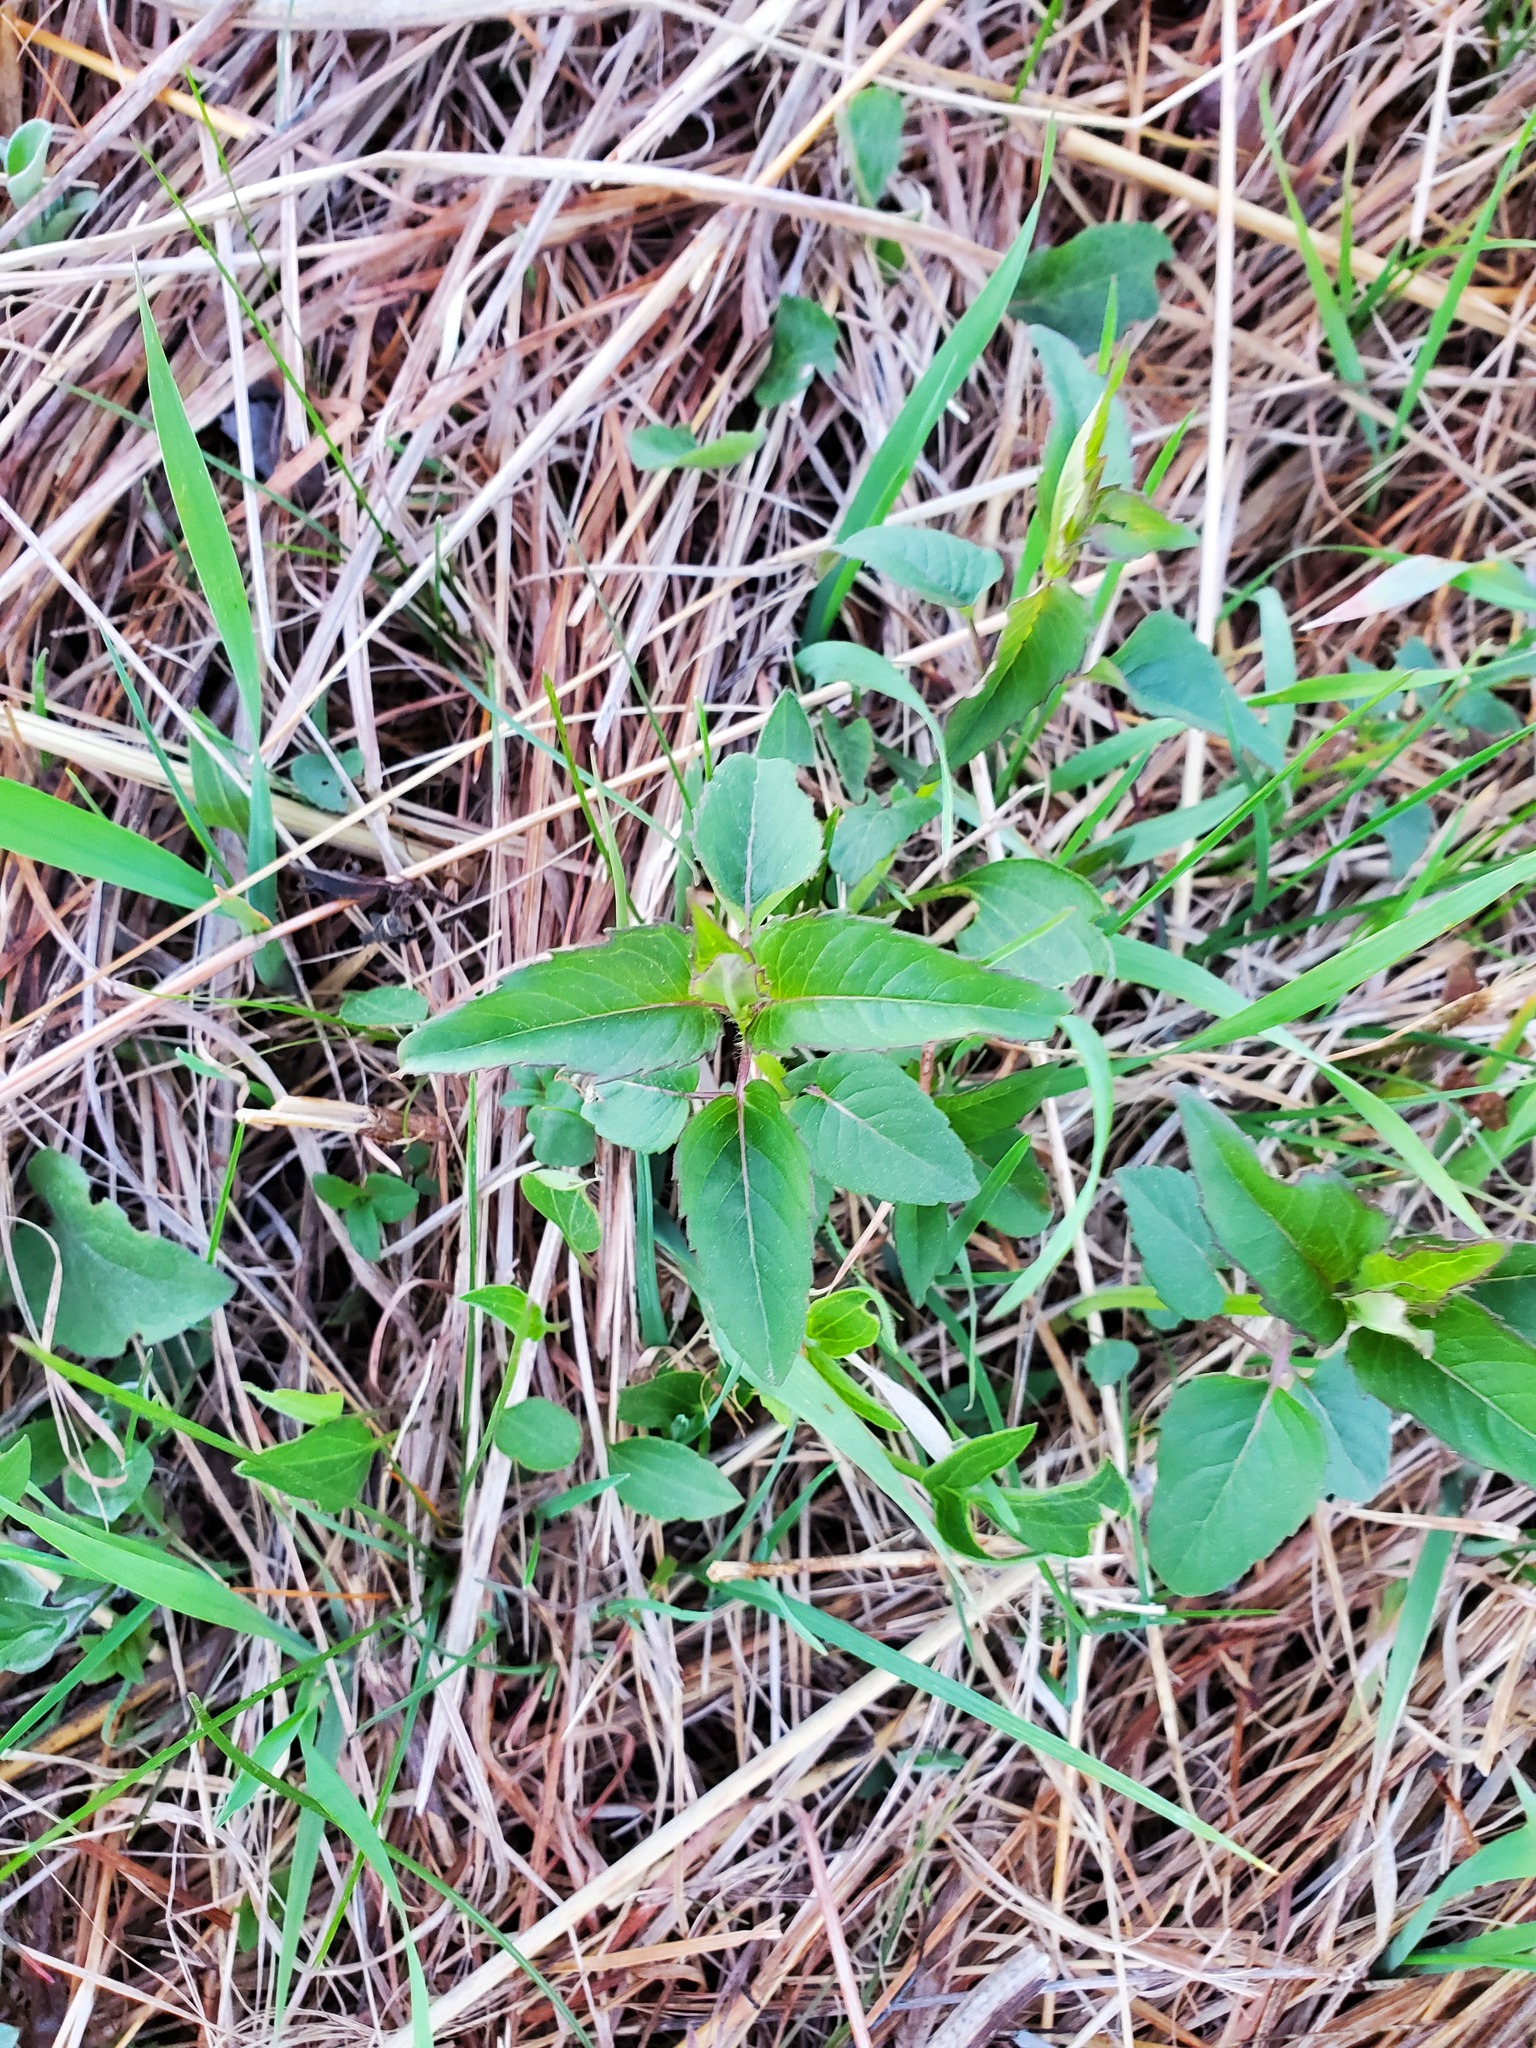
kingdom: Plantae
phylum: Tracheophyta
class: Magnoliopsida
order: Lamiales
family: Lamiaceae
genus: Monarda
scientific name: Monarda fistulosa
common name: Purple beebalm
